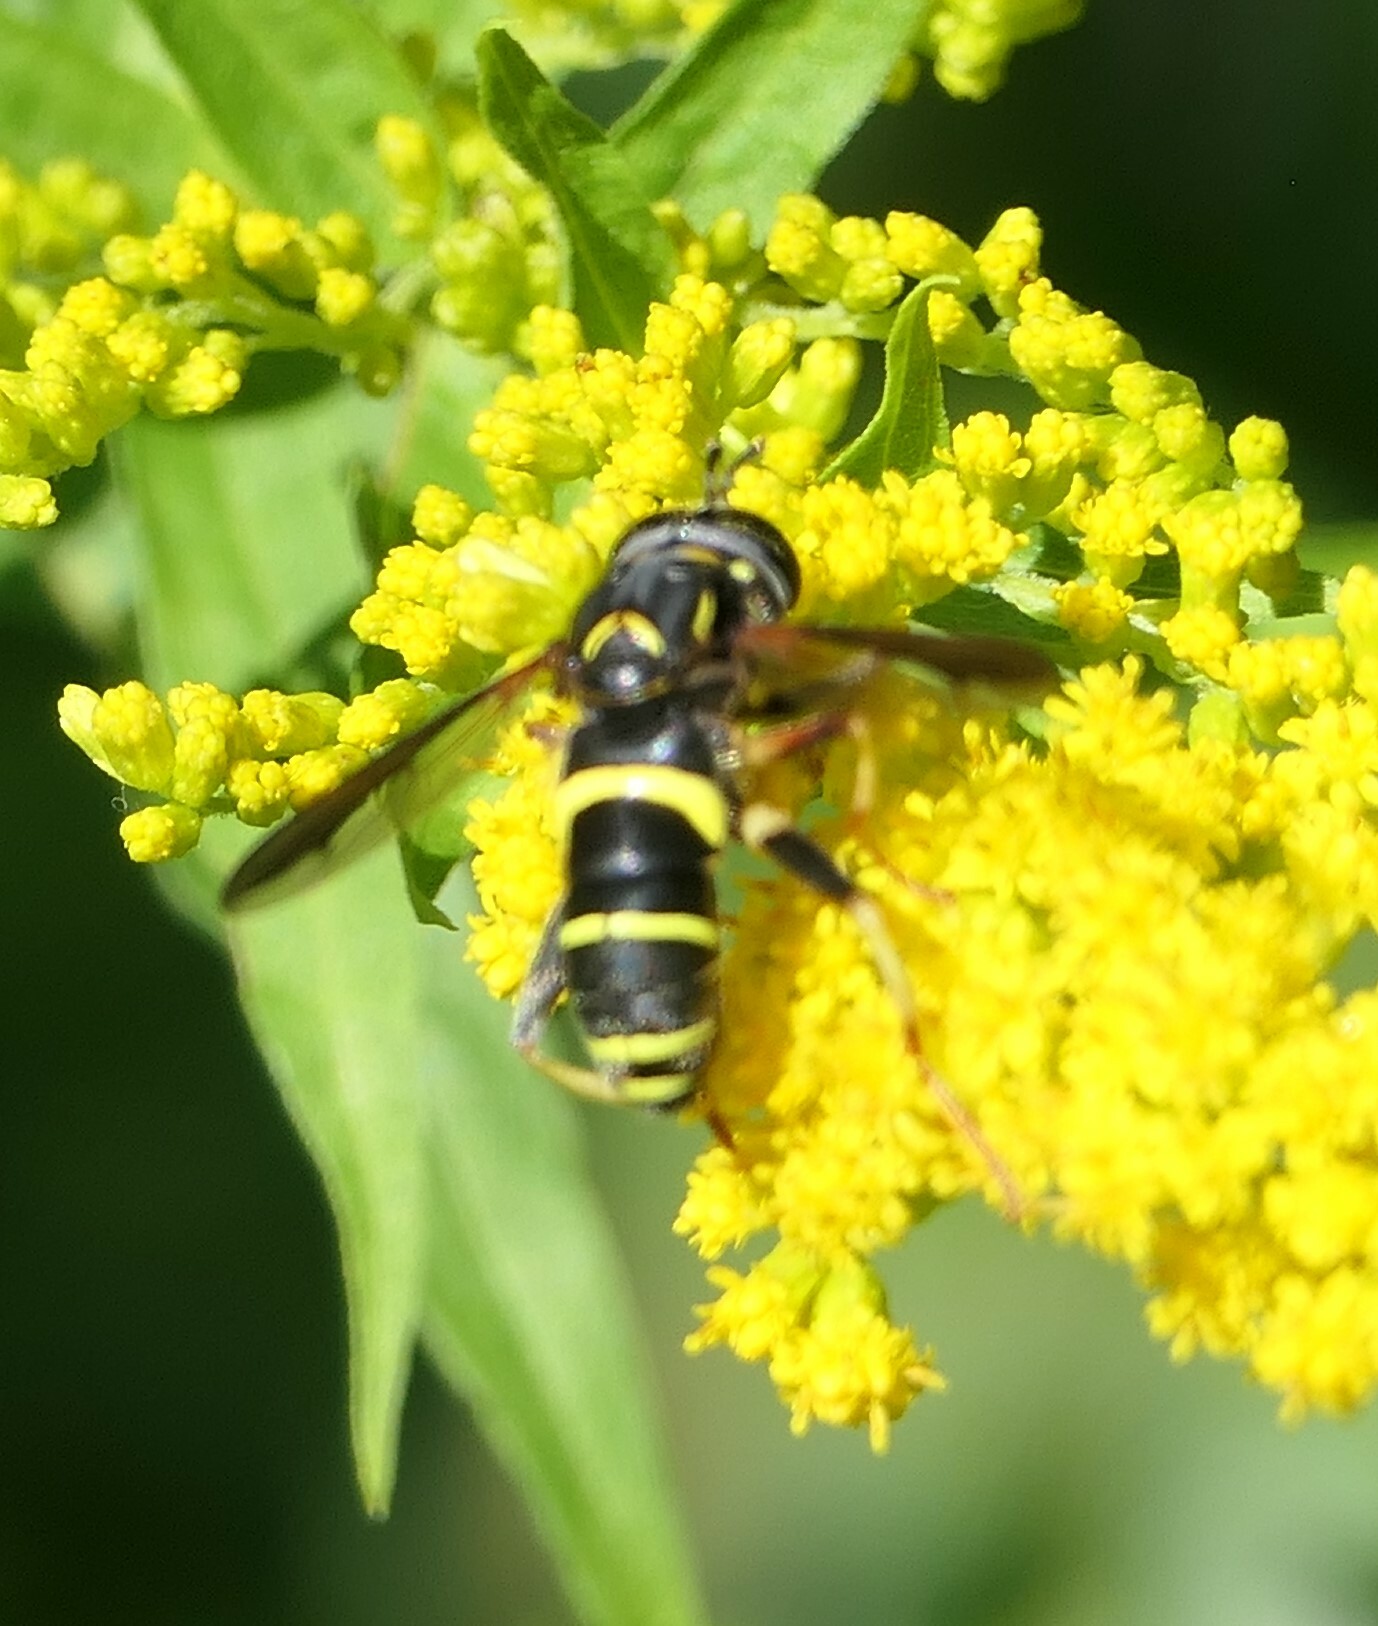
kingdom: Animalia
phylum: Arthropoda
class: Insecta
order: Diptera
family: Syrphidae
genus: Spilomyia
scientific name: Spilomyia sayi
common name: Four-lined hornet fly
